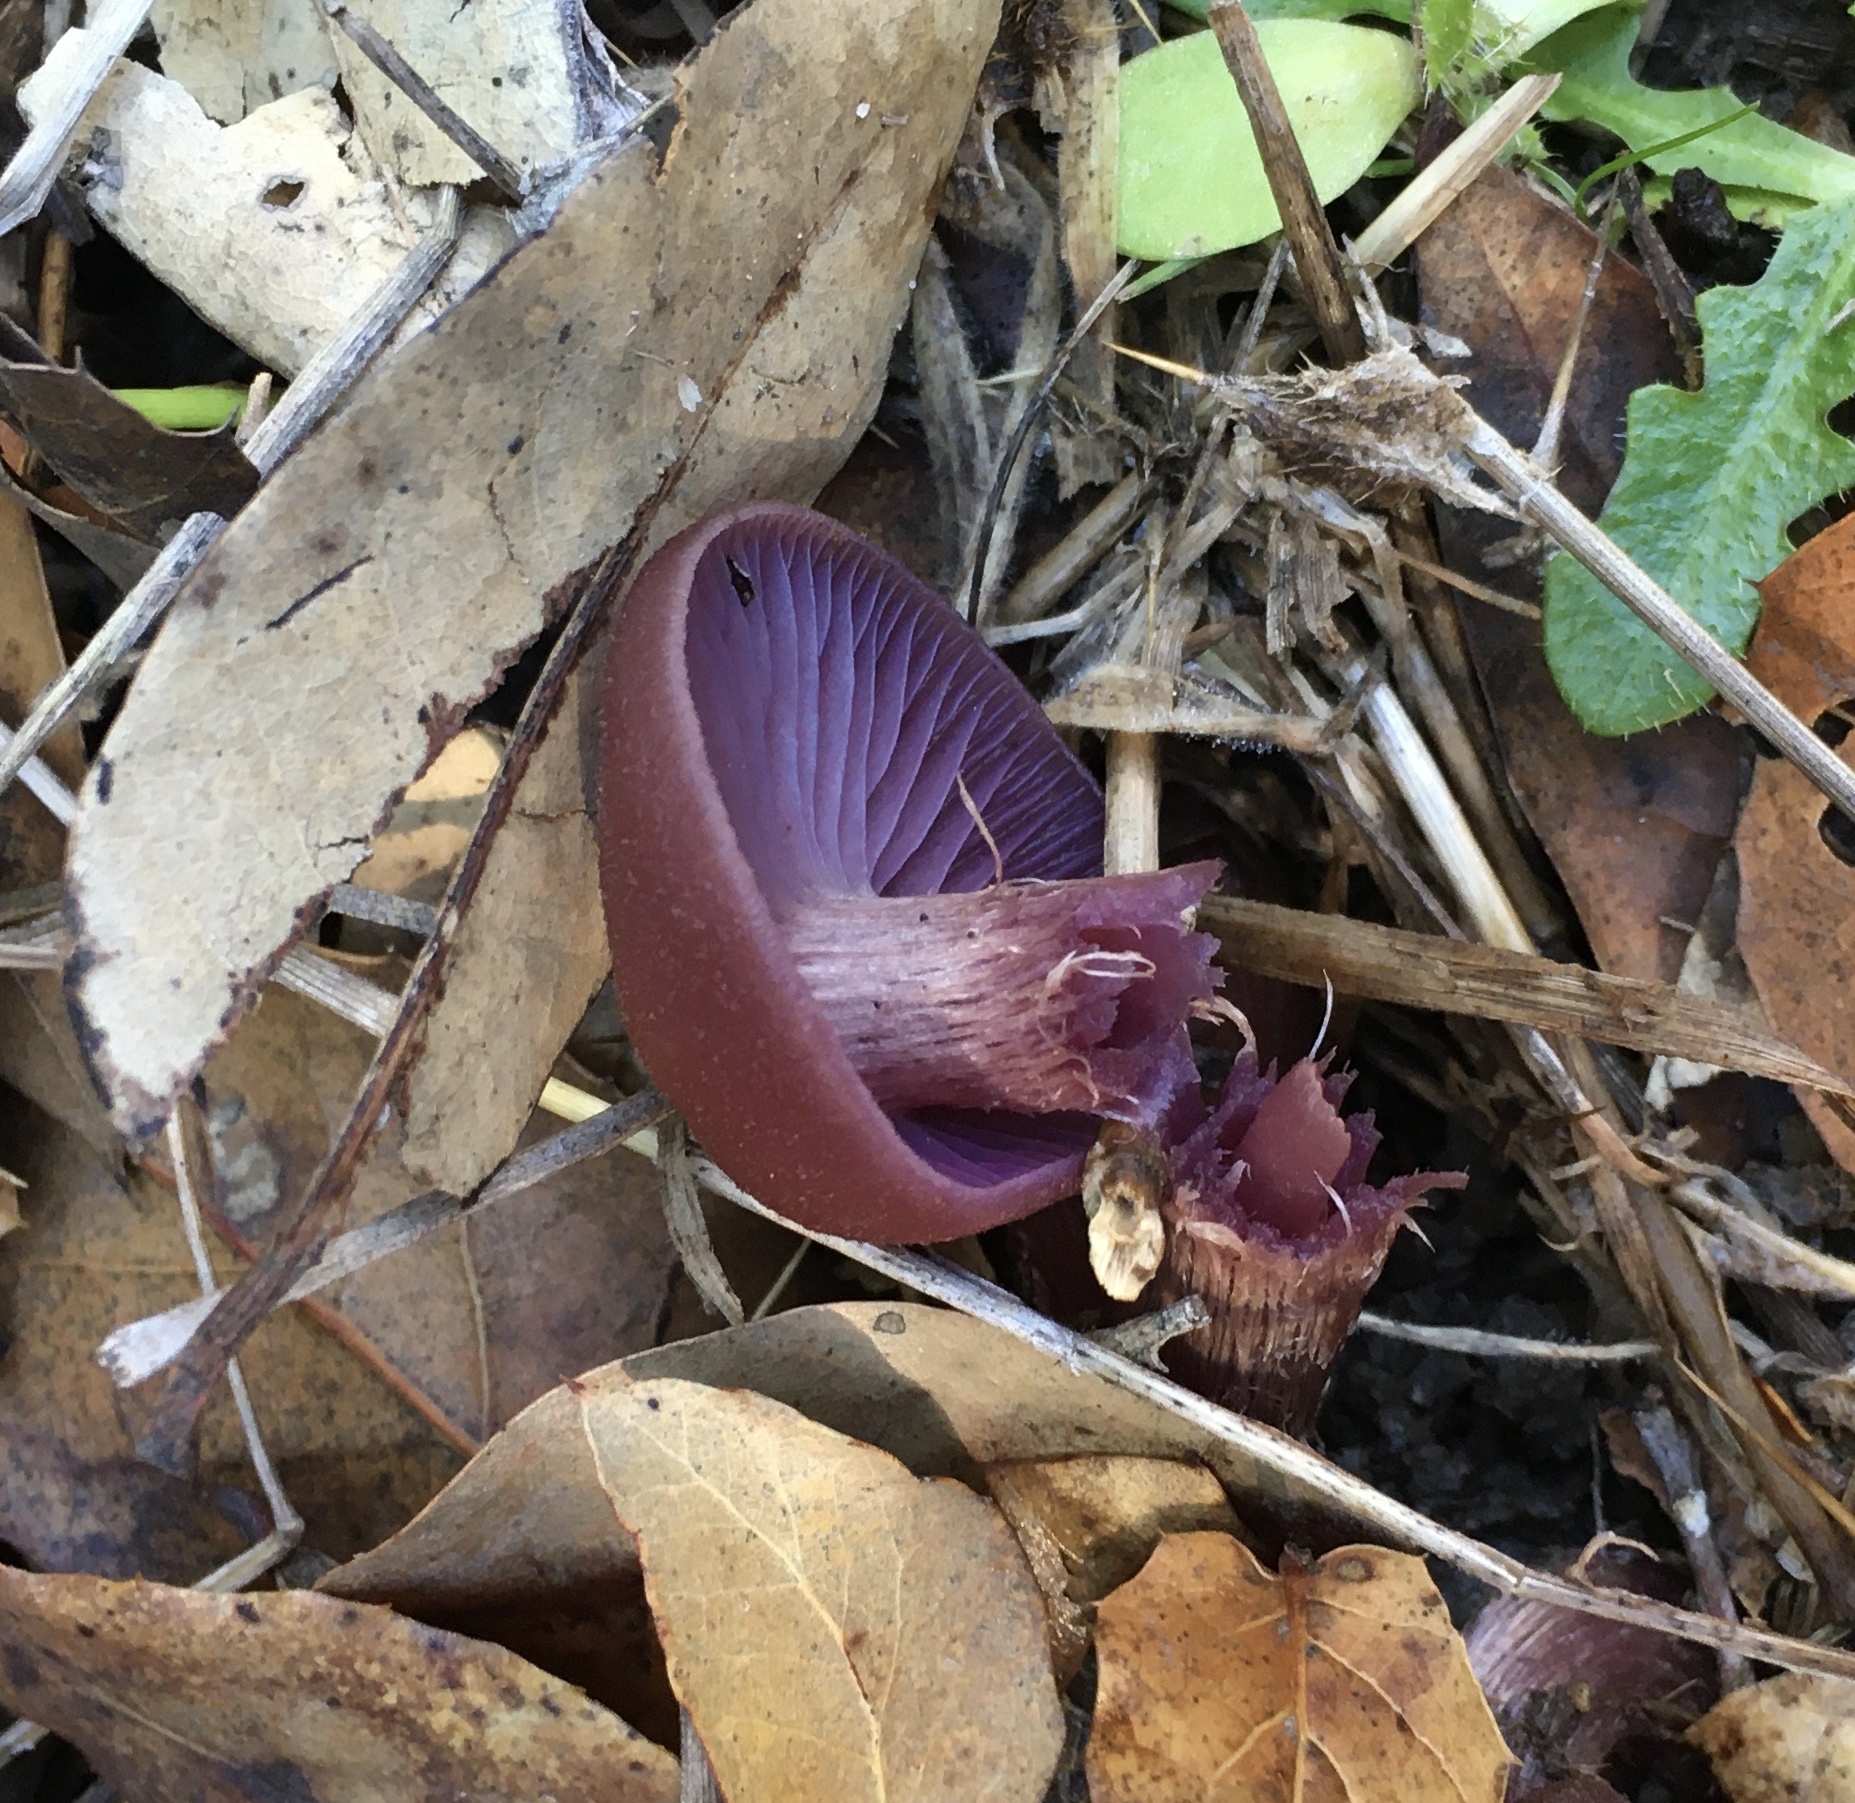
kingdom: Fungi
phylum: Basidiomycota
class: Agaricomycetes
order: Agaricales
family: Hydnangiaceae
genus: Laccaria
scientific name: Laccaria amethysteo-occidentalis
